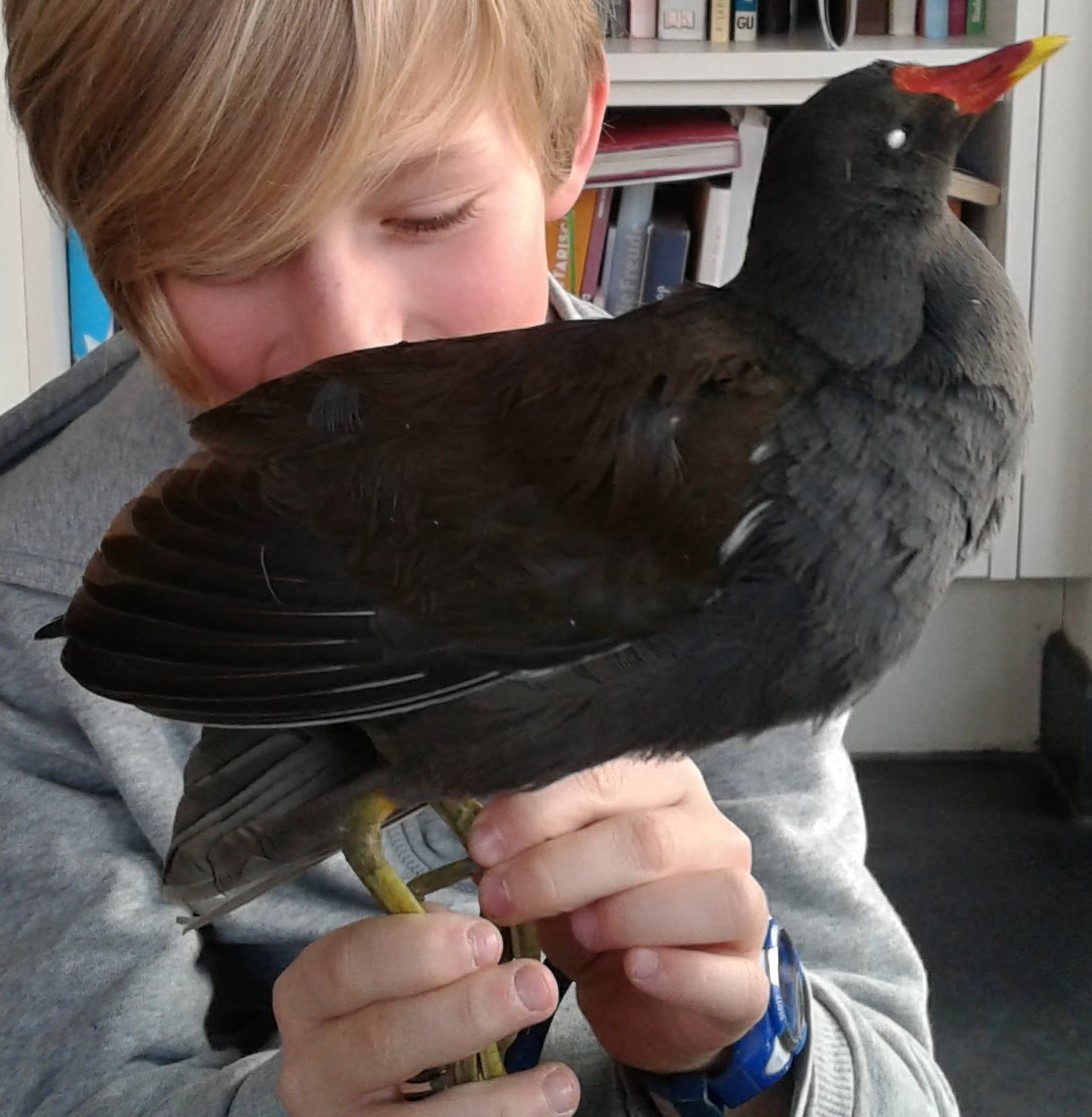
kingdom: Animalia
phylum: Chordata
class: Aves
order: Gruiformes
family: Rallidae
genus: Gallinula
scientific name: Gallinula chloropus
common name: Common moorhen
